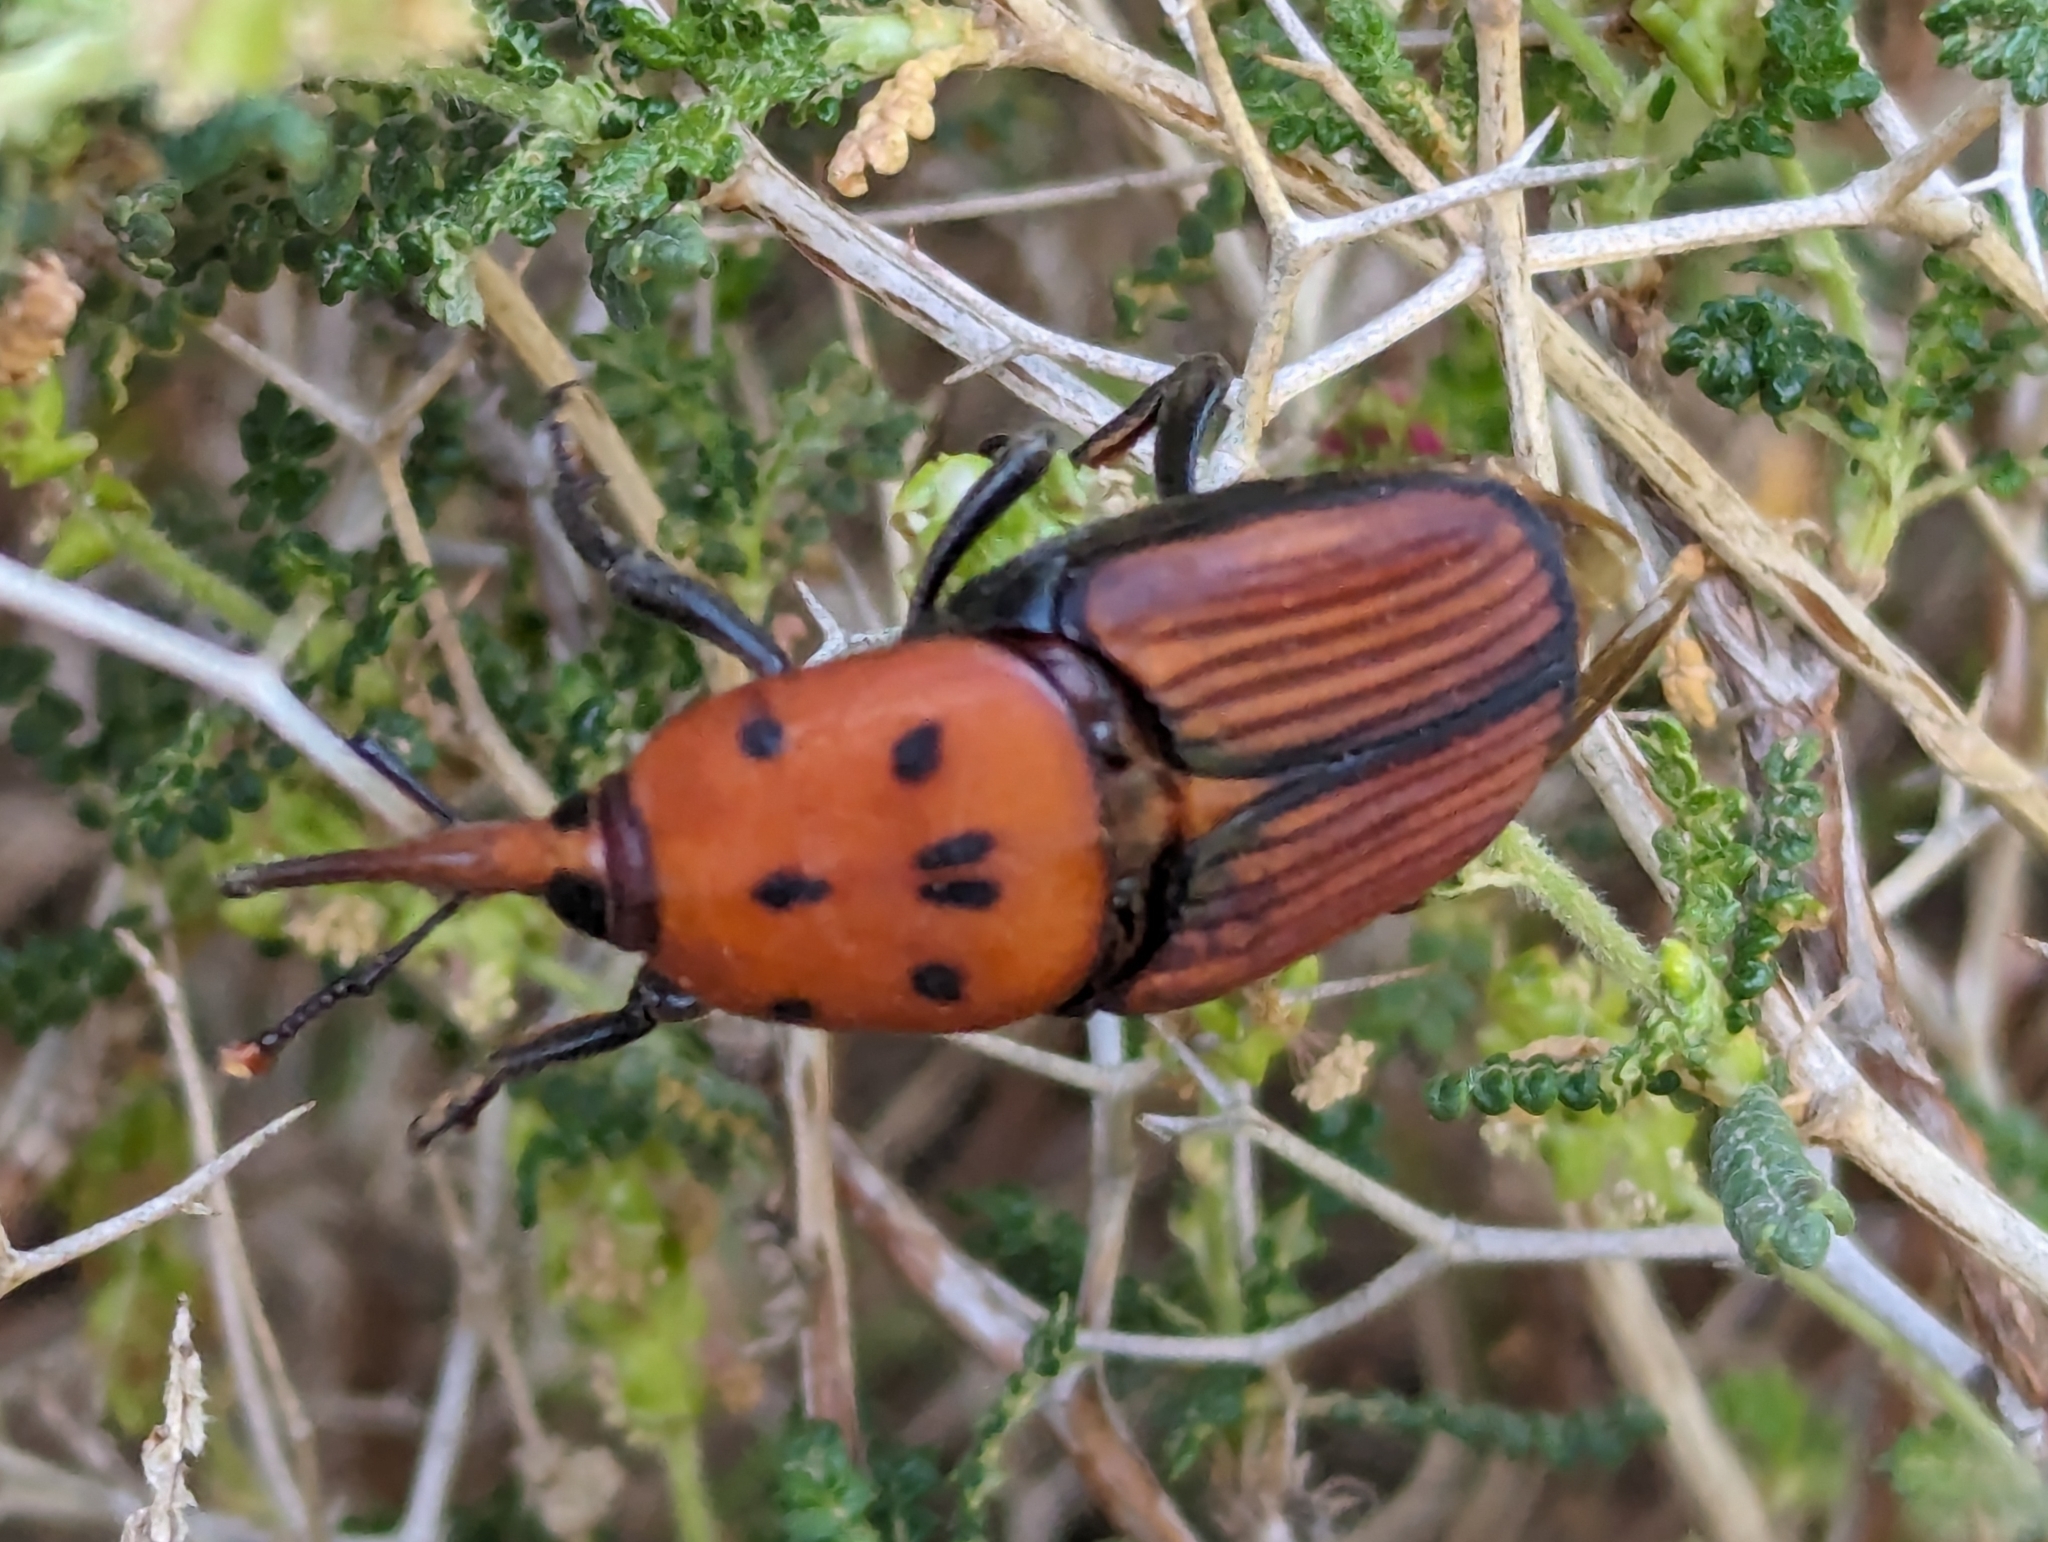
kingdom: Animalia
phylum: Arthropoda
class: Insecta
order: Coleoptera
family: Dryophthoridae
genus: Rhynchophorus
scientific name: Rhynchophorus ferrugineus
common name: Red palm weevil
